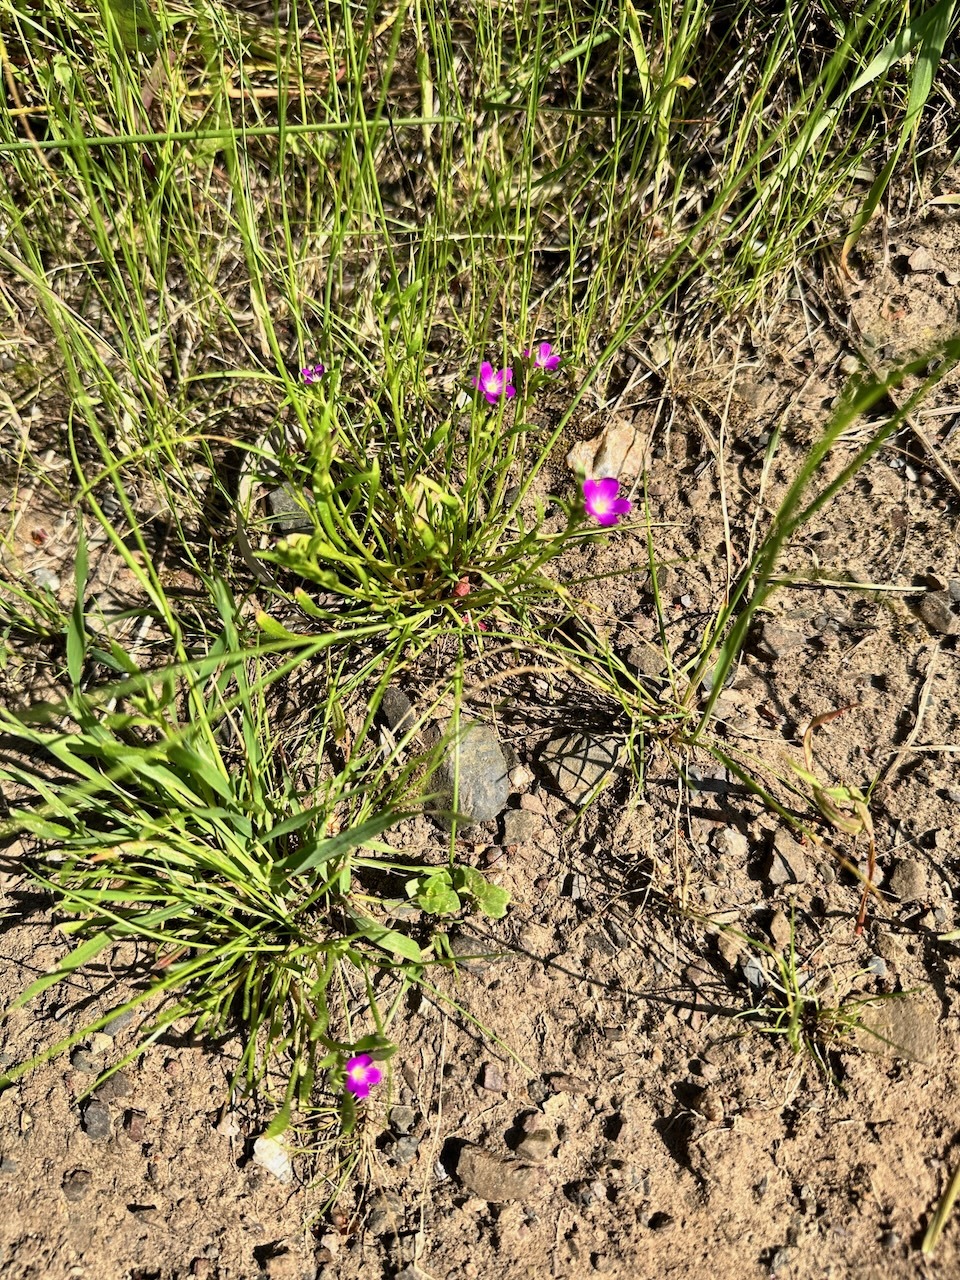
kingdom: Plantae
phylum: Tracheophyta
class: Magnoliopsida
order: Caryophyllales
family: Montiaceae
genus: Calandrinia
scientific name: Calandrinia menziesii
